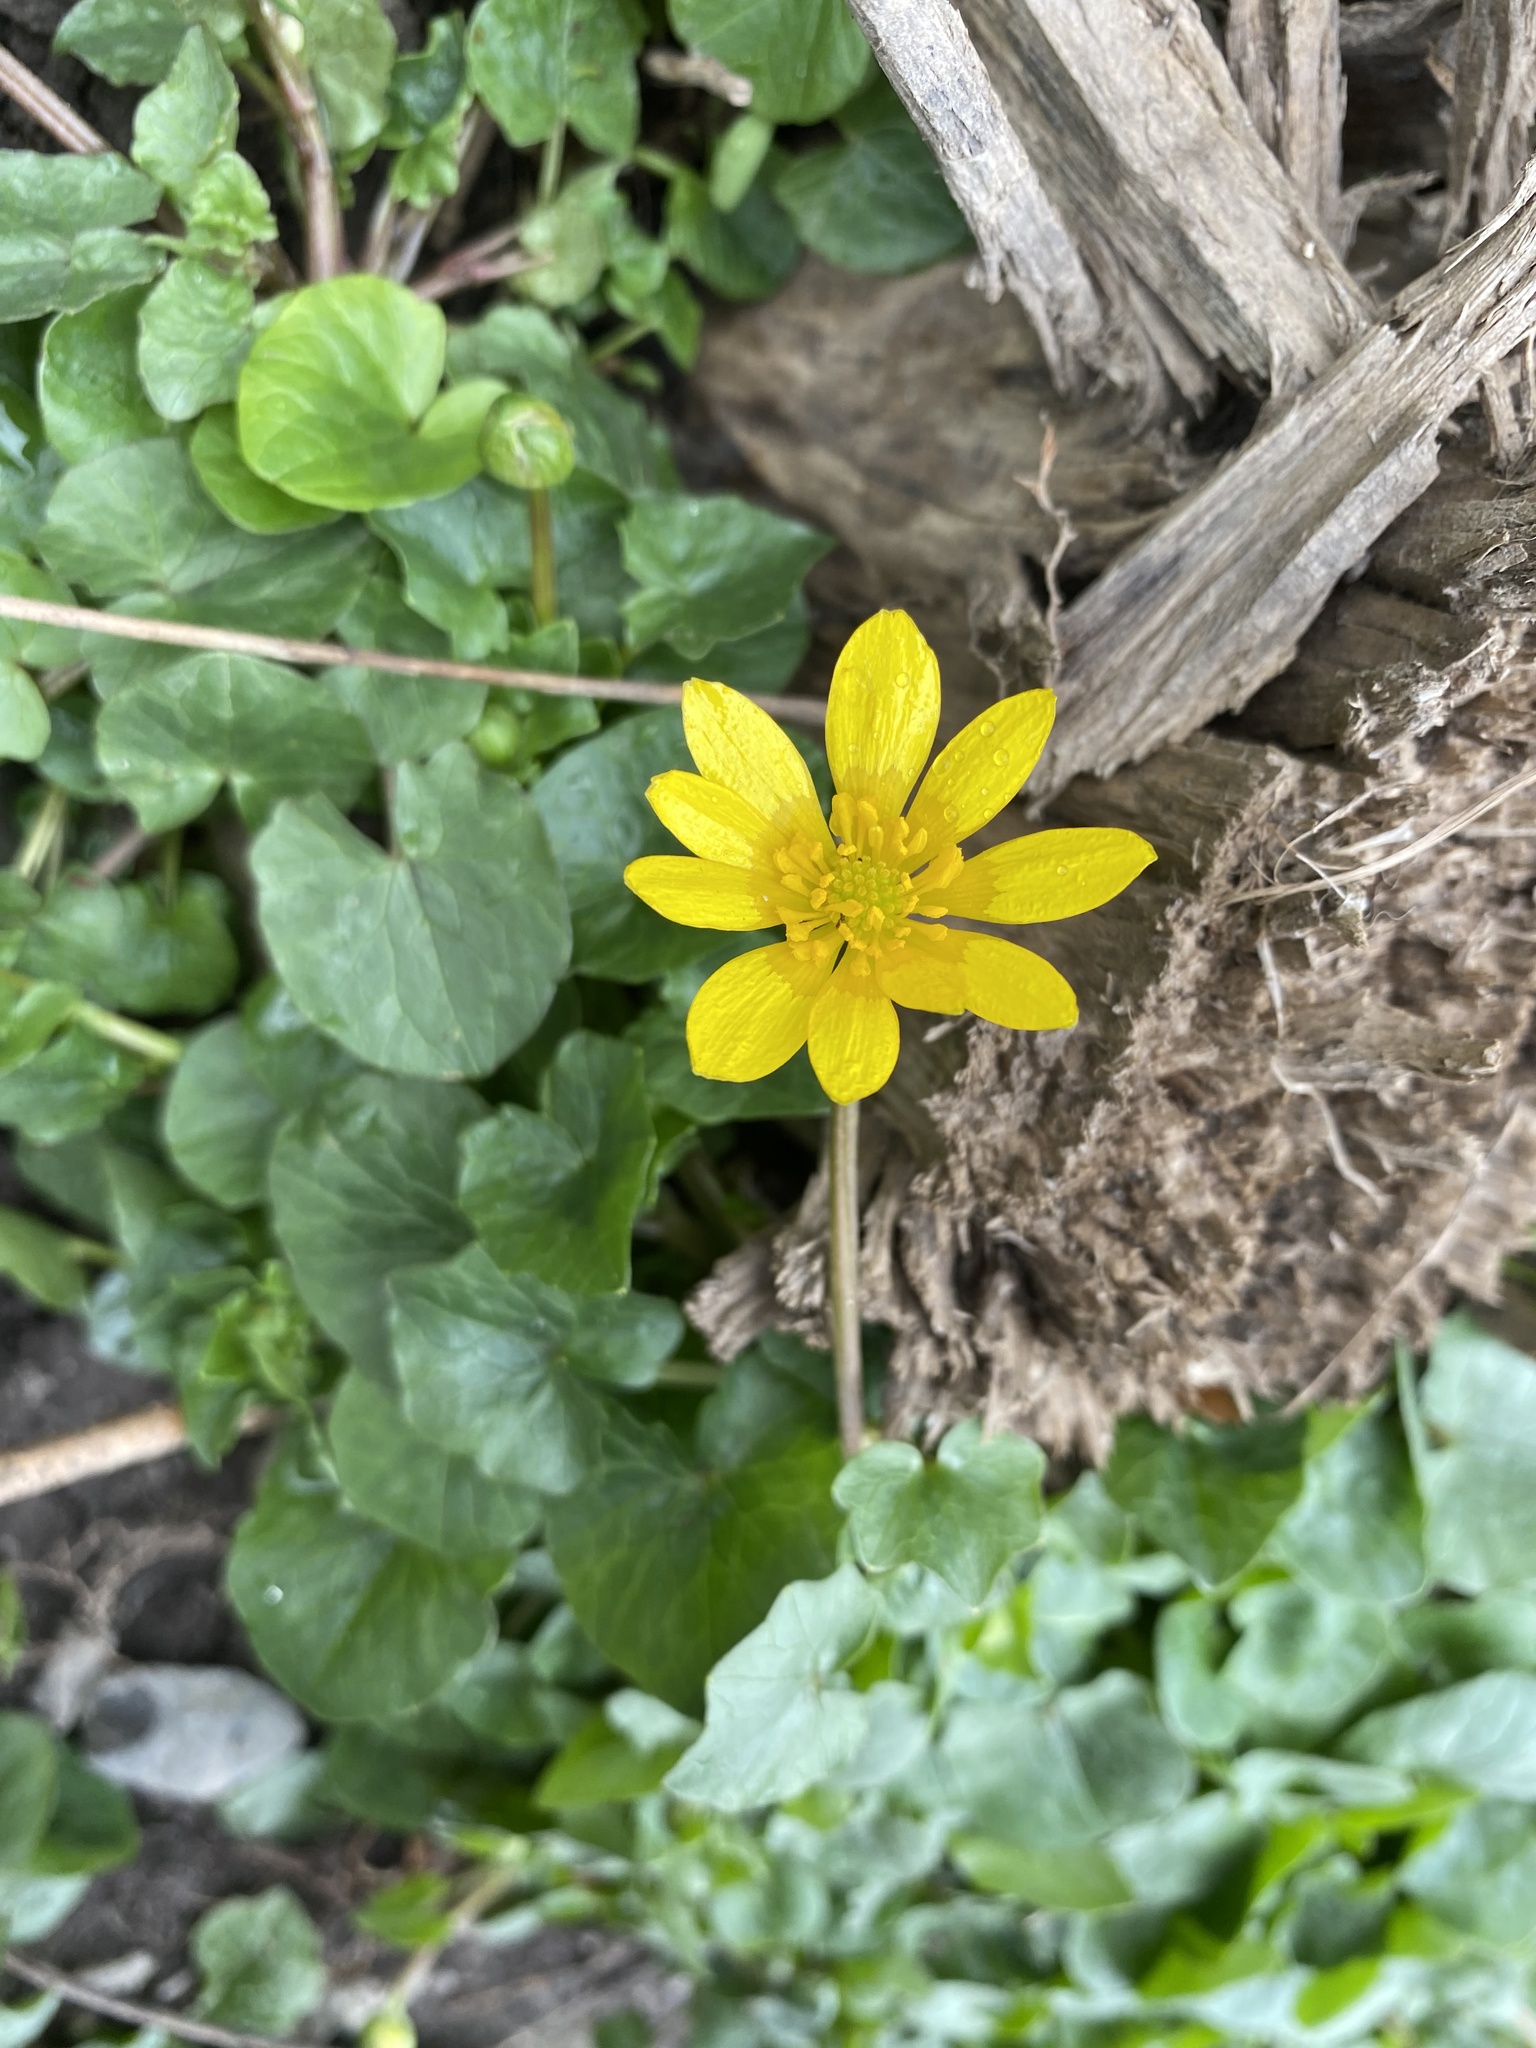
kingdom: Plantae
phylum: Tracheophyta
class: Magnoliopsida
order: Ranunculales
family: Ranunculaceae
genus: Ficaria
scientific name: Ficaria verna
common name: Lesser celandine
